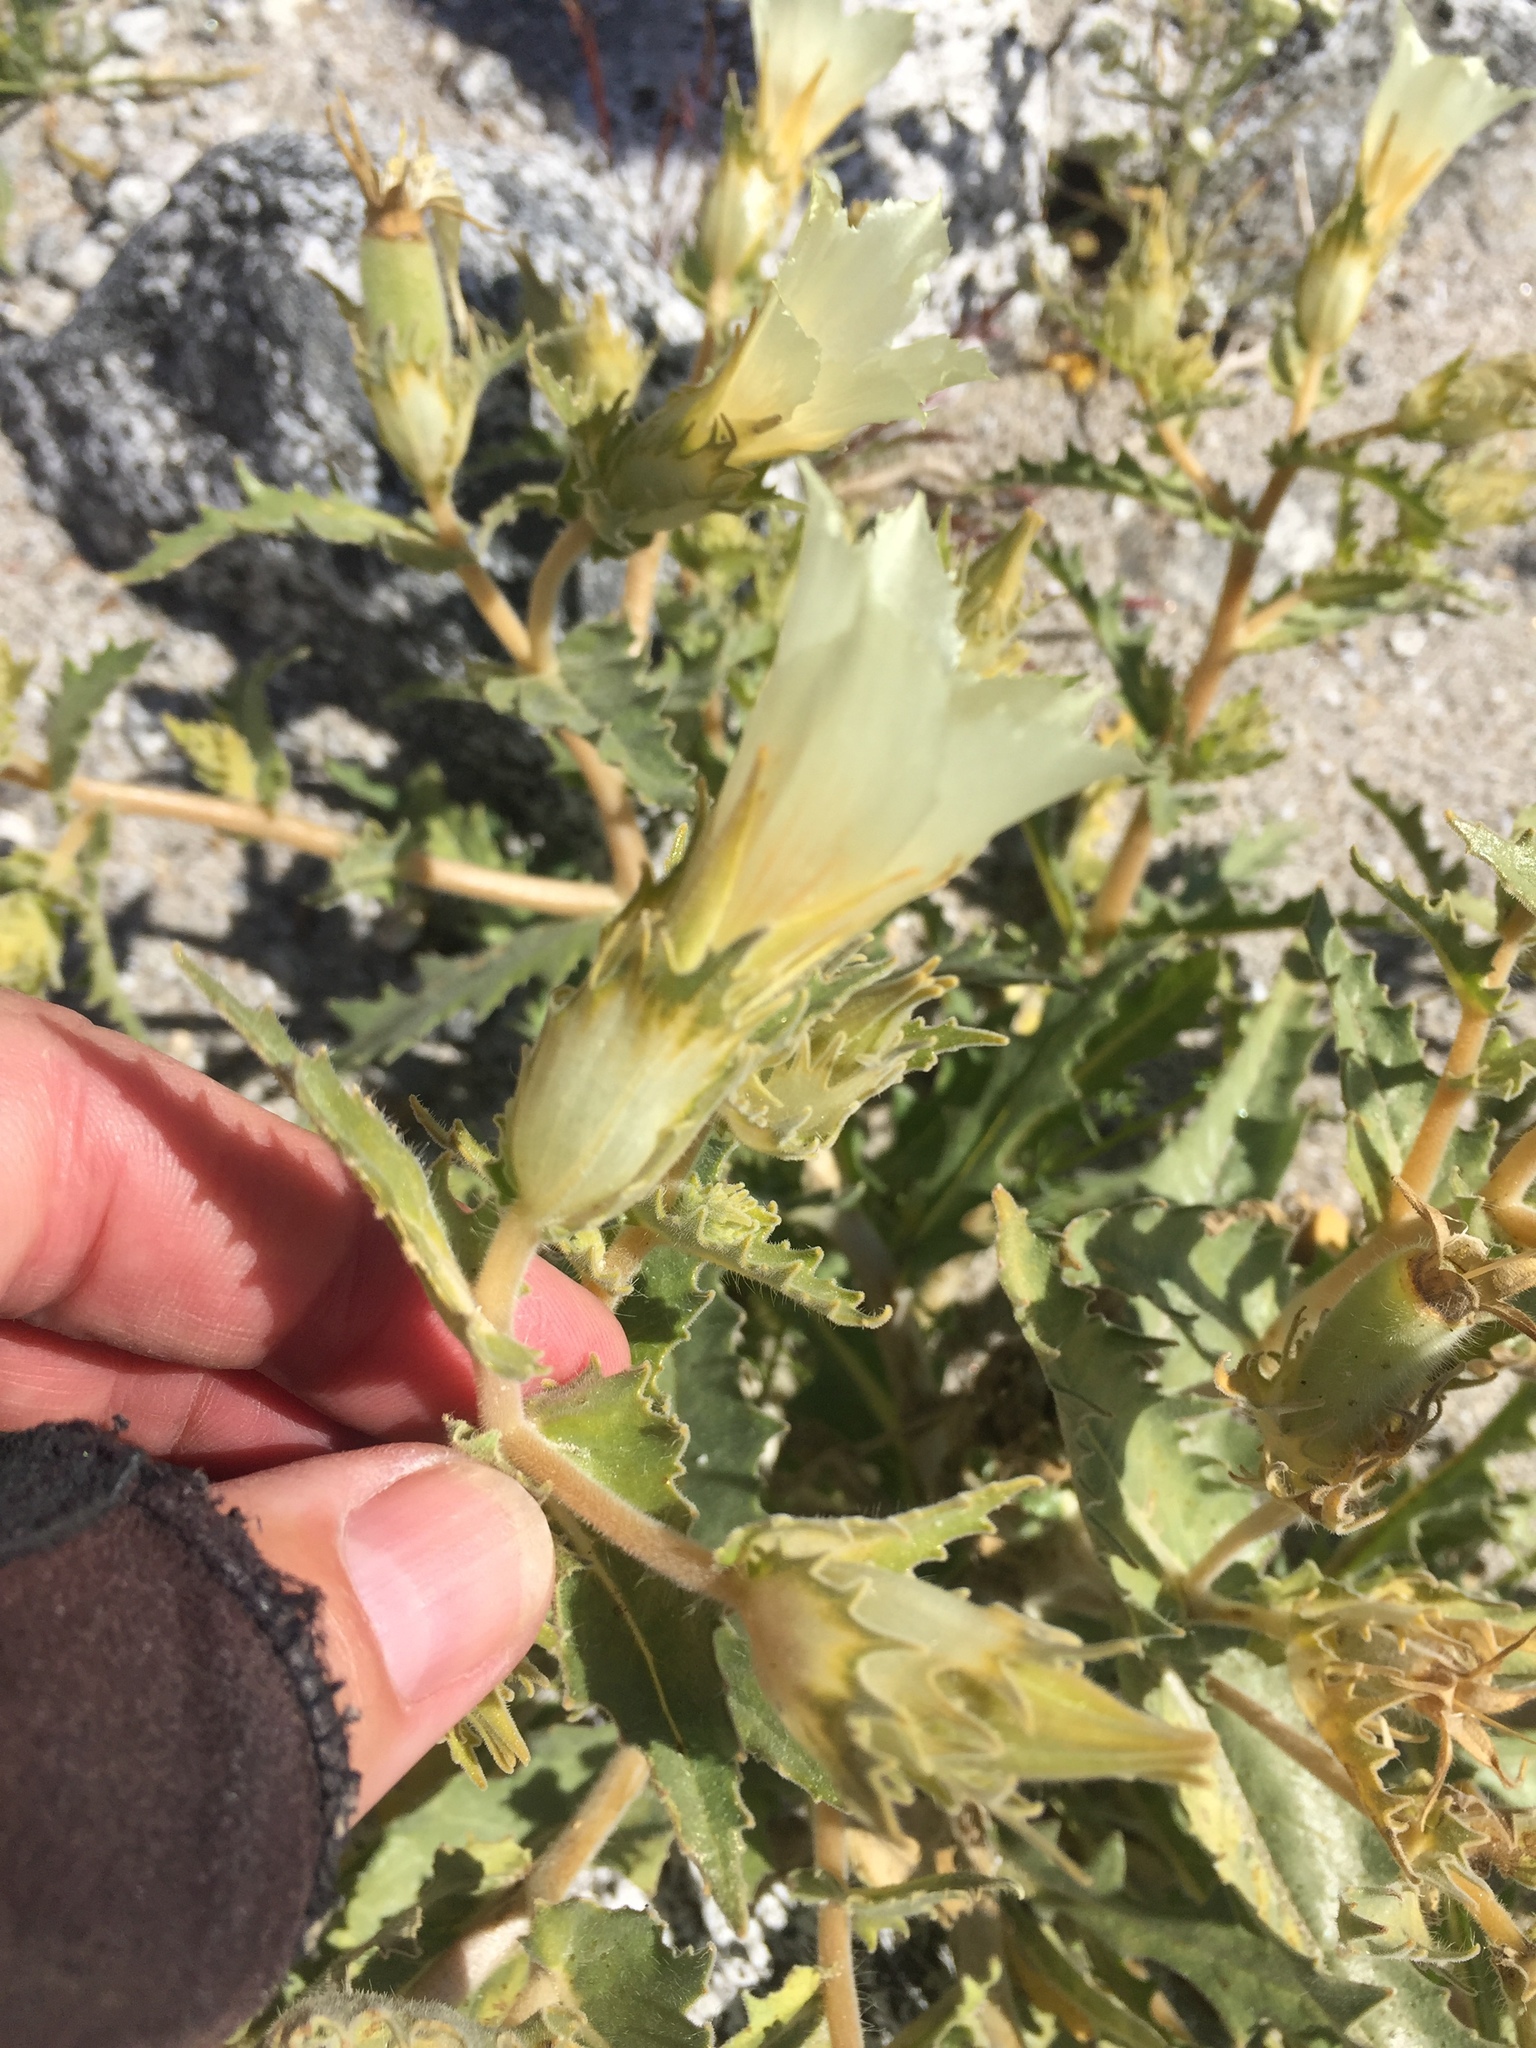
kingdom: Plantae
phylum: Tracheophyta
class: Magnoliopsida
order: Cornales
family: Loasaceae
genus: Mentzelia
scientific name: Mentzelia involucrata
